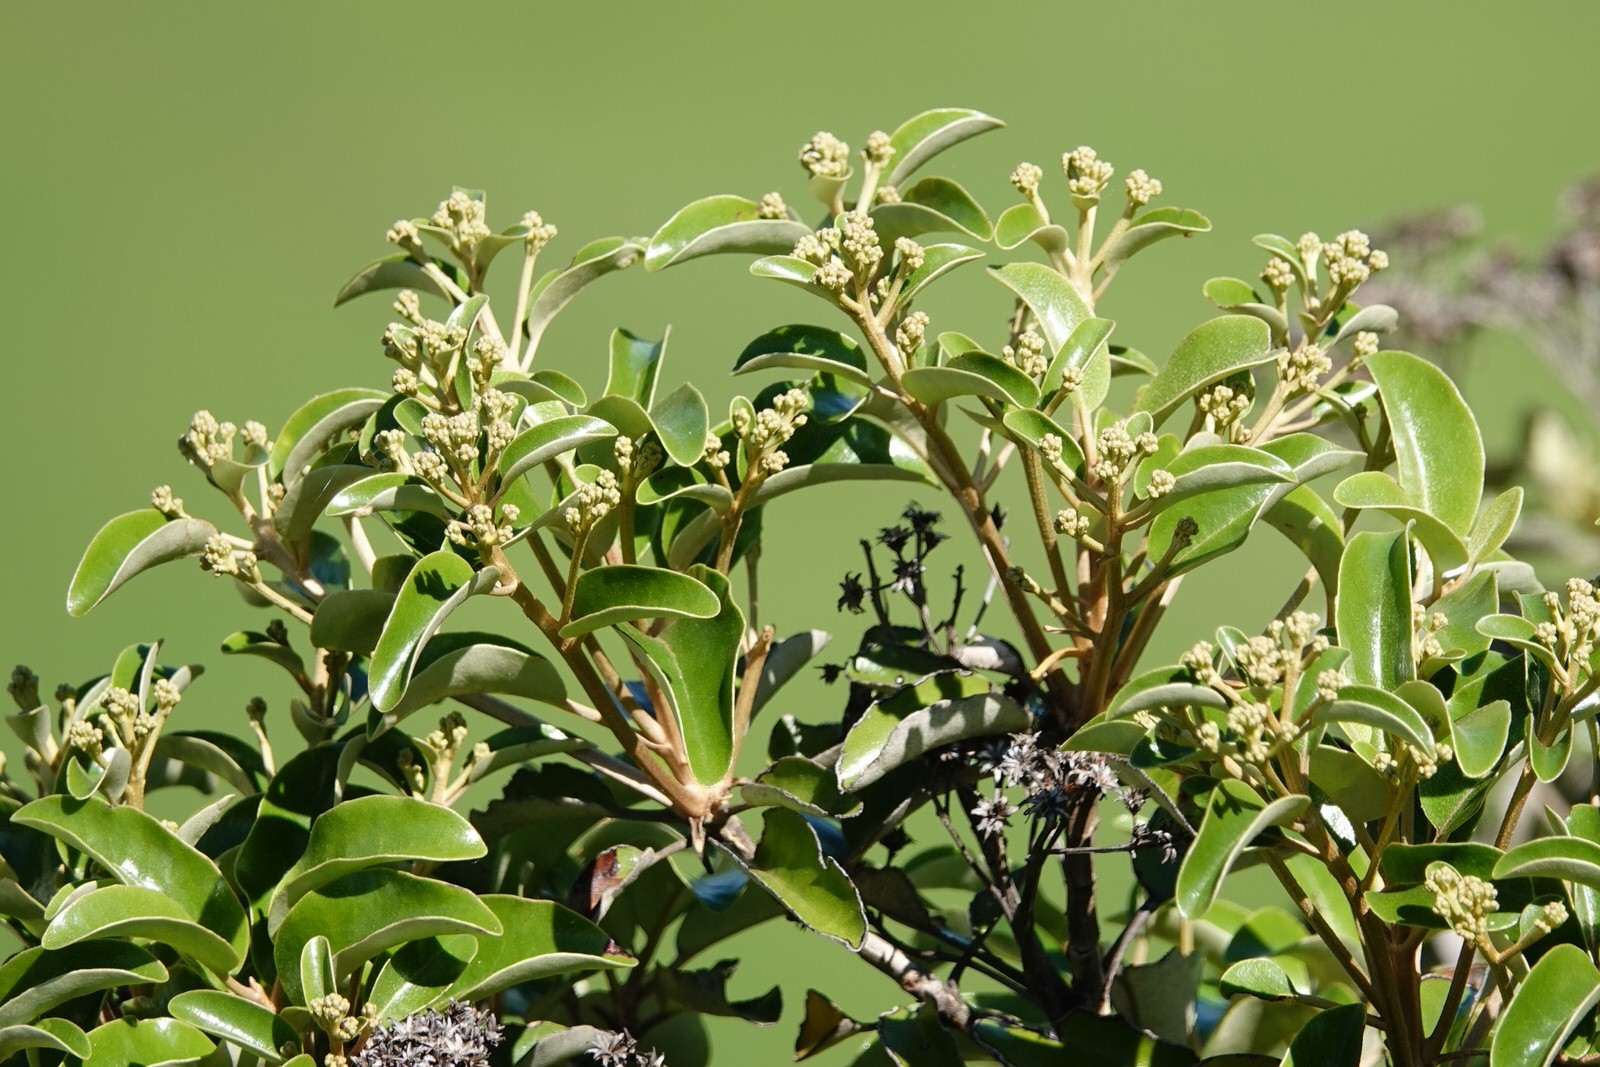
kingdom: Plantae
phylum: Tracheophyta
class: Magnoliopsida
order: Asterales
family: Asteraceae
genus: Olearia
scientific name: Olearia furfuracea
